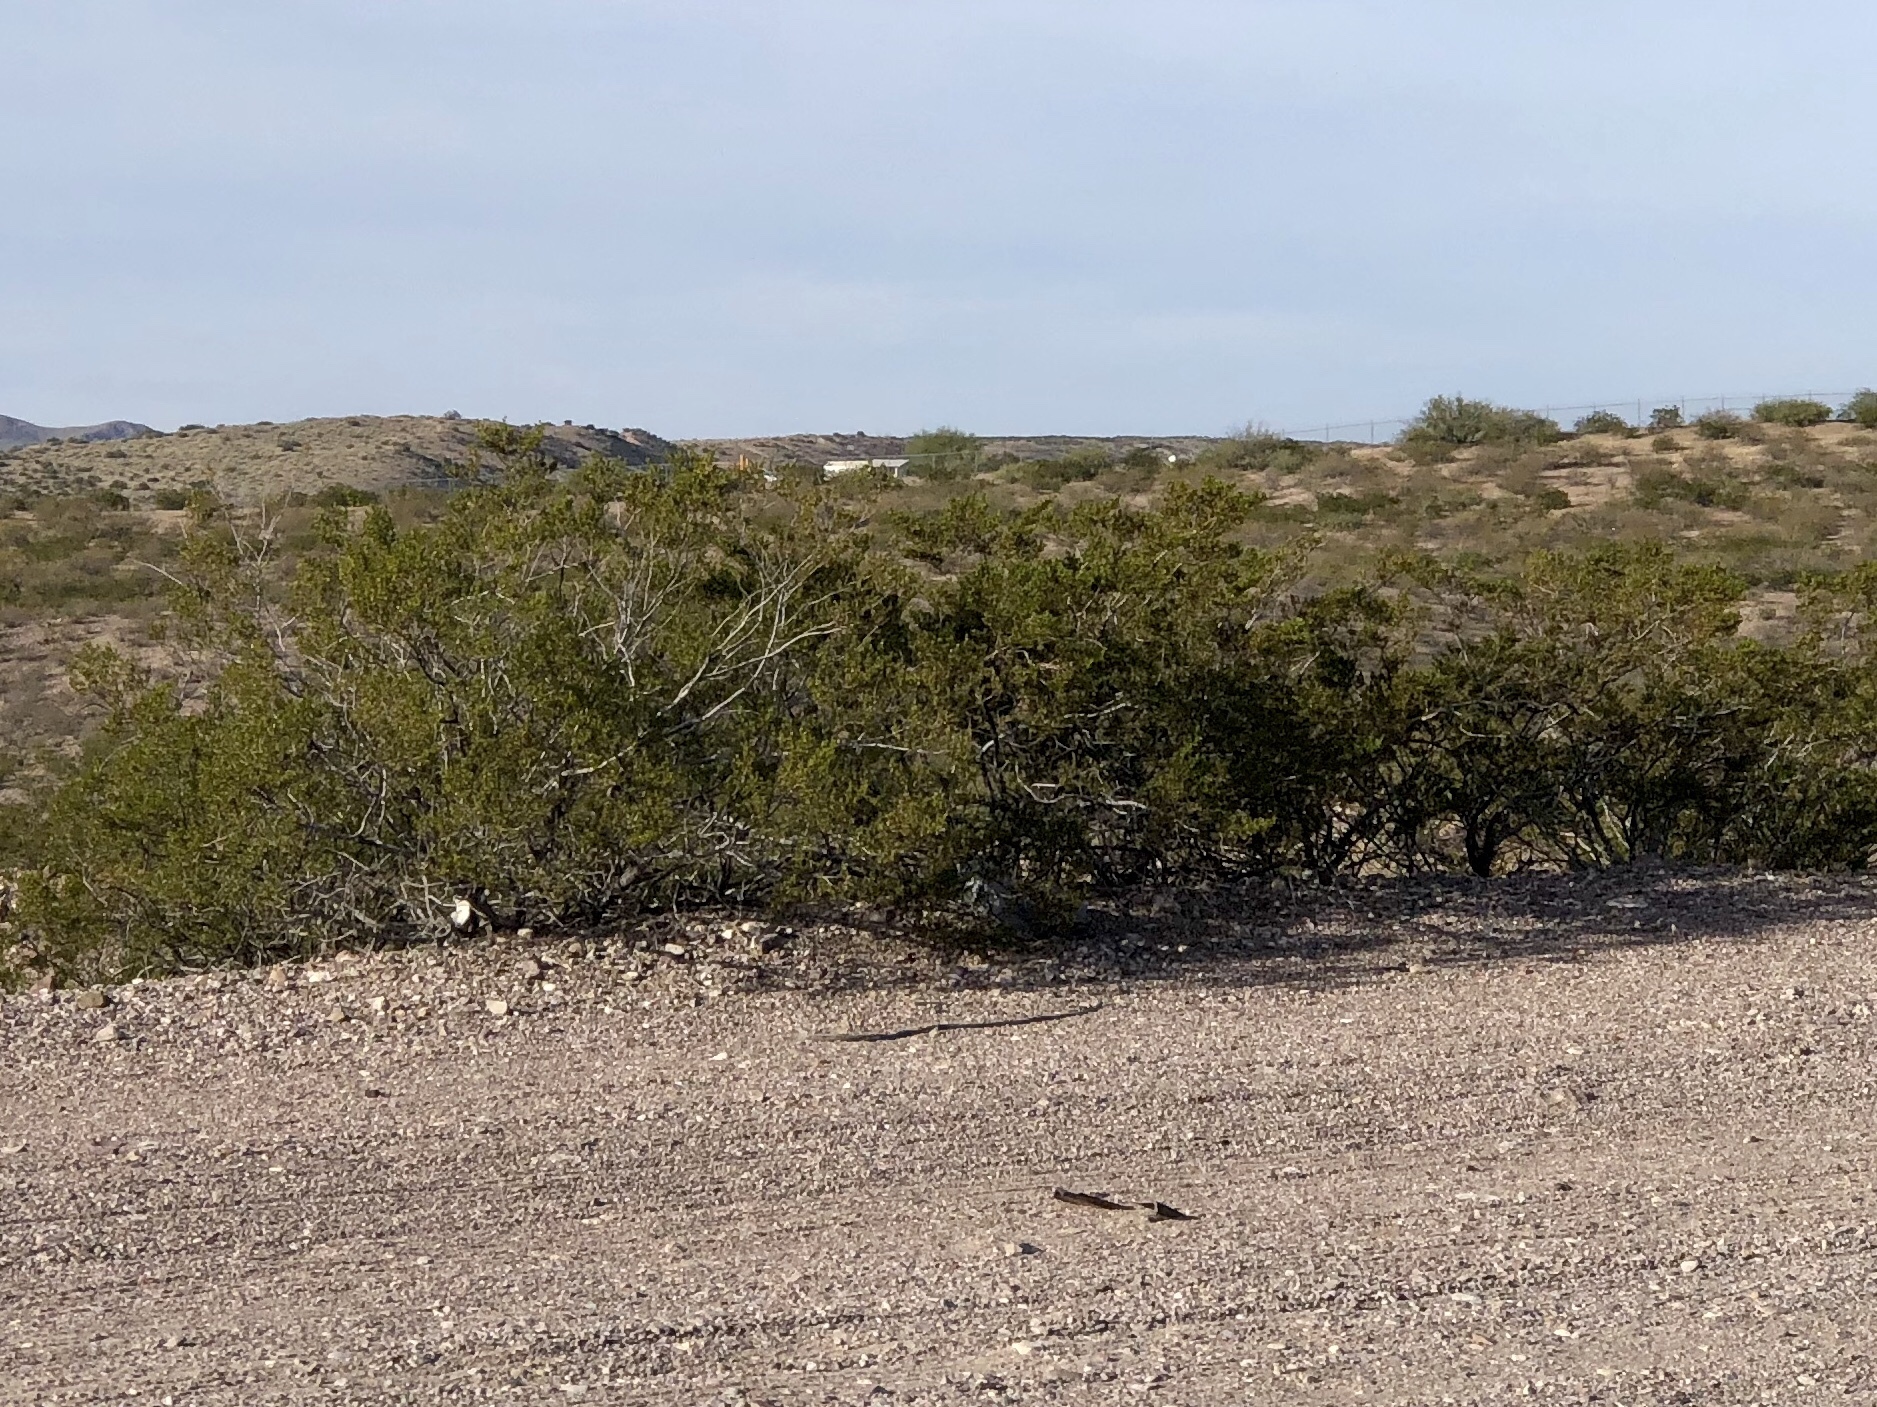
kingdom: Plantae
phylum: Tracheophyta
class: Magnoliopsida
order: Zygophyllales
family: Zygophyllaceae
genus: Larrea
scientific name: Larrea tridentata
